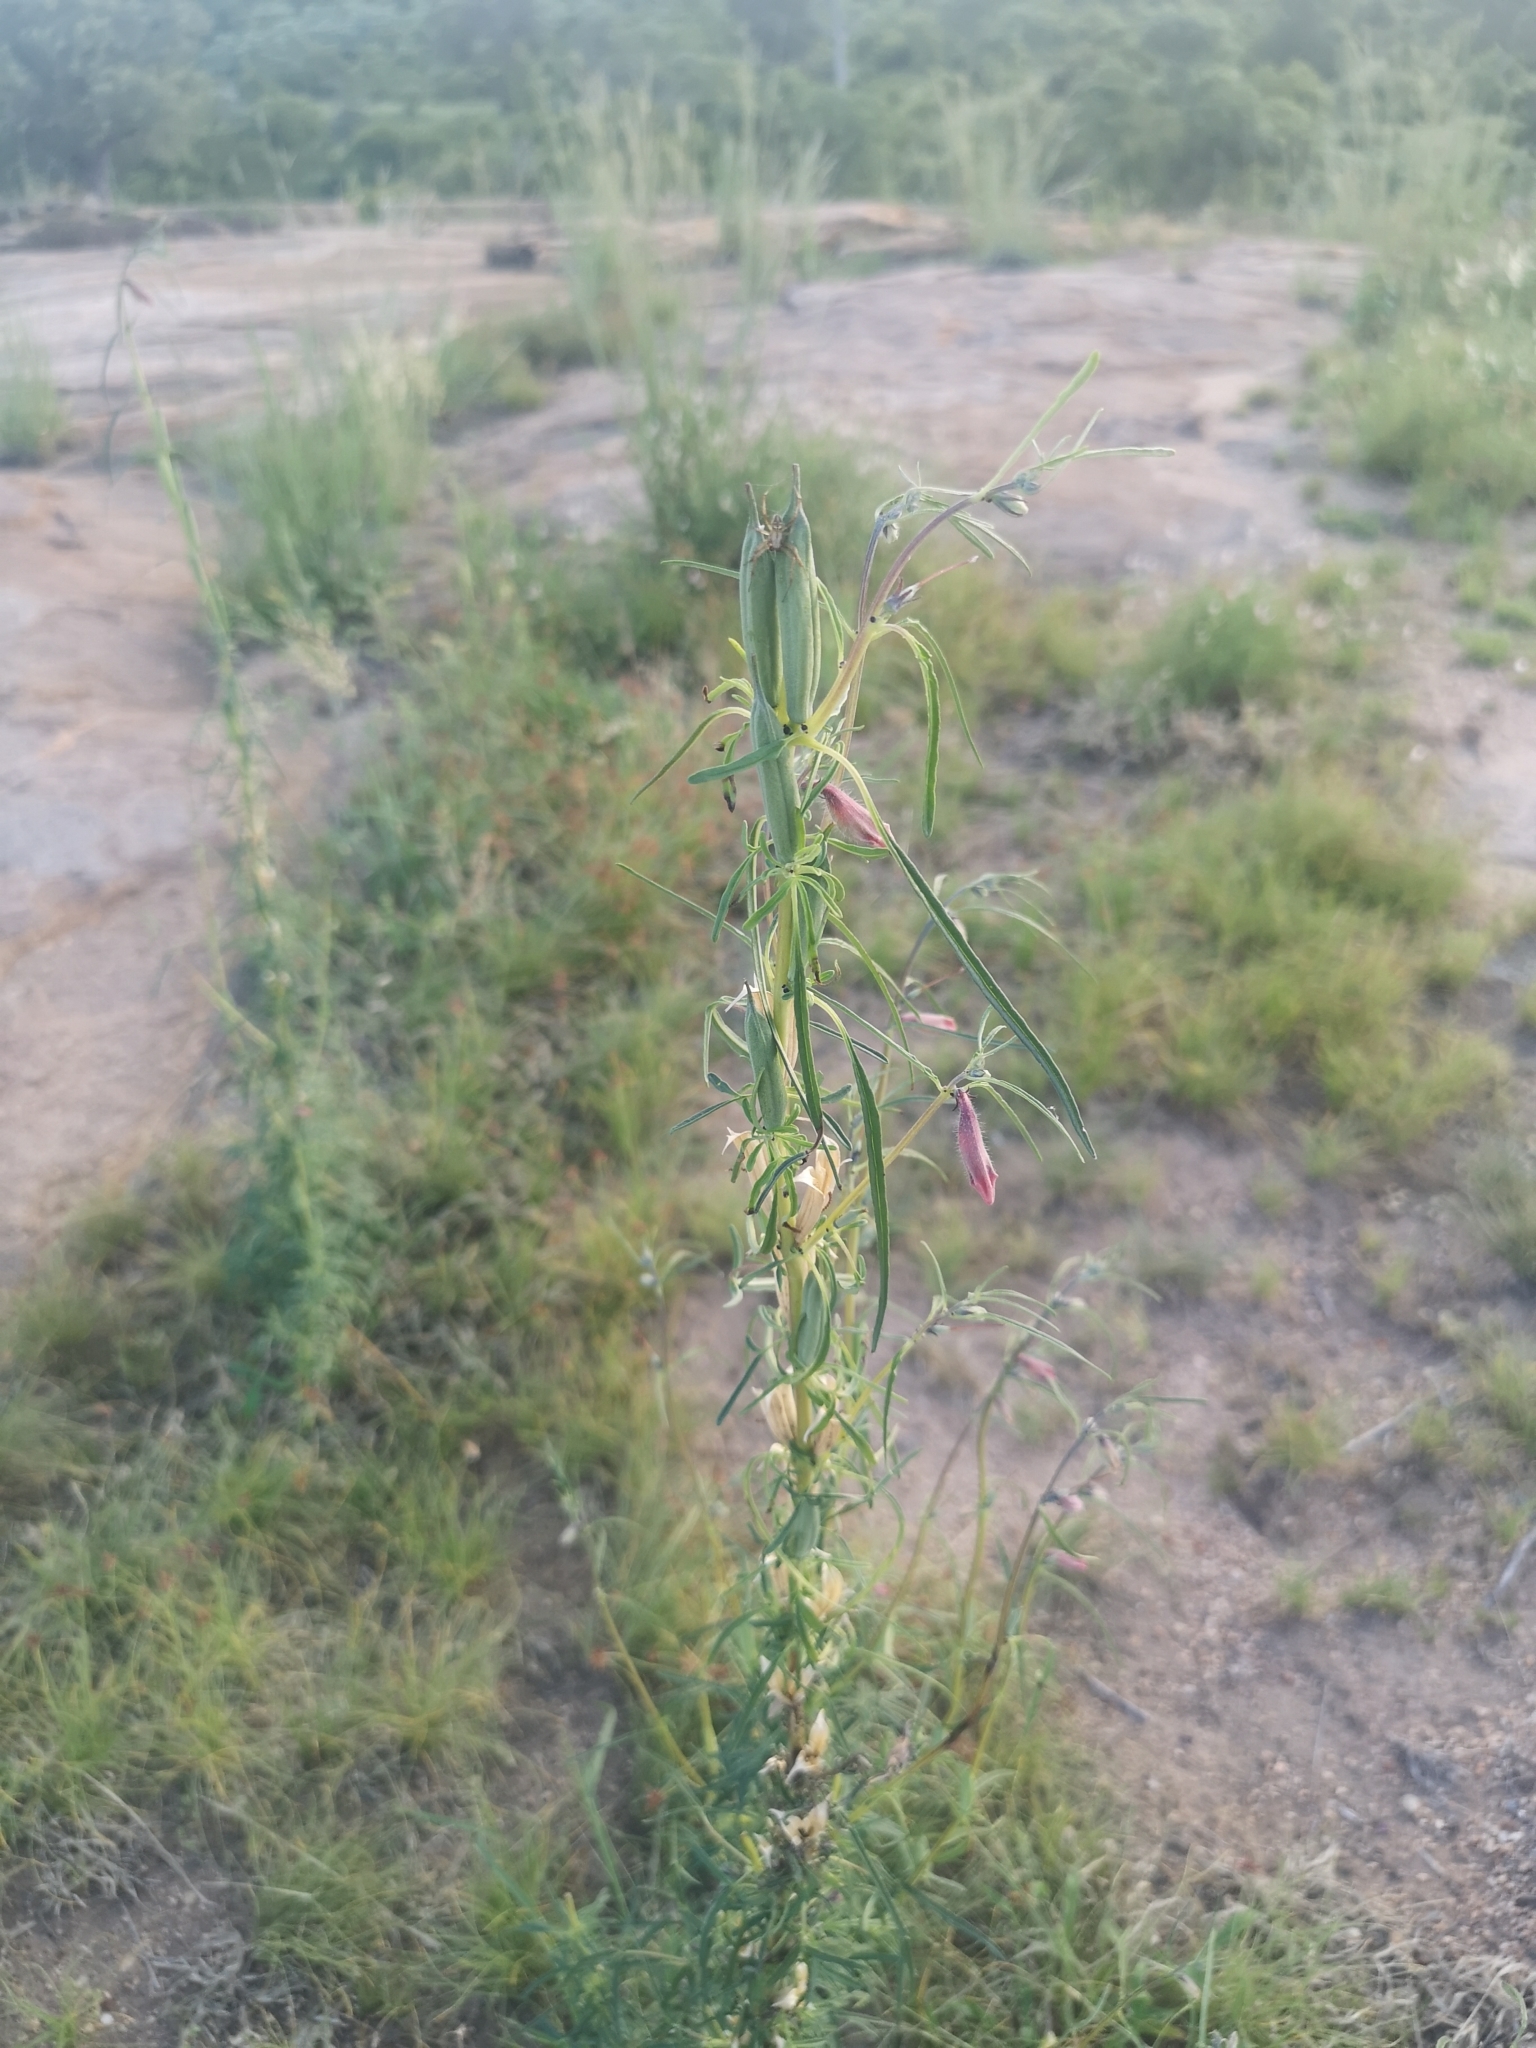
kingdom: Plantae
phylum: Tracheophyta
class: Magnoliopsida
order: Lamiales
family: Pedaliaceae
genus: Sesamum
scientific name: Sesamum alatum
